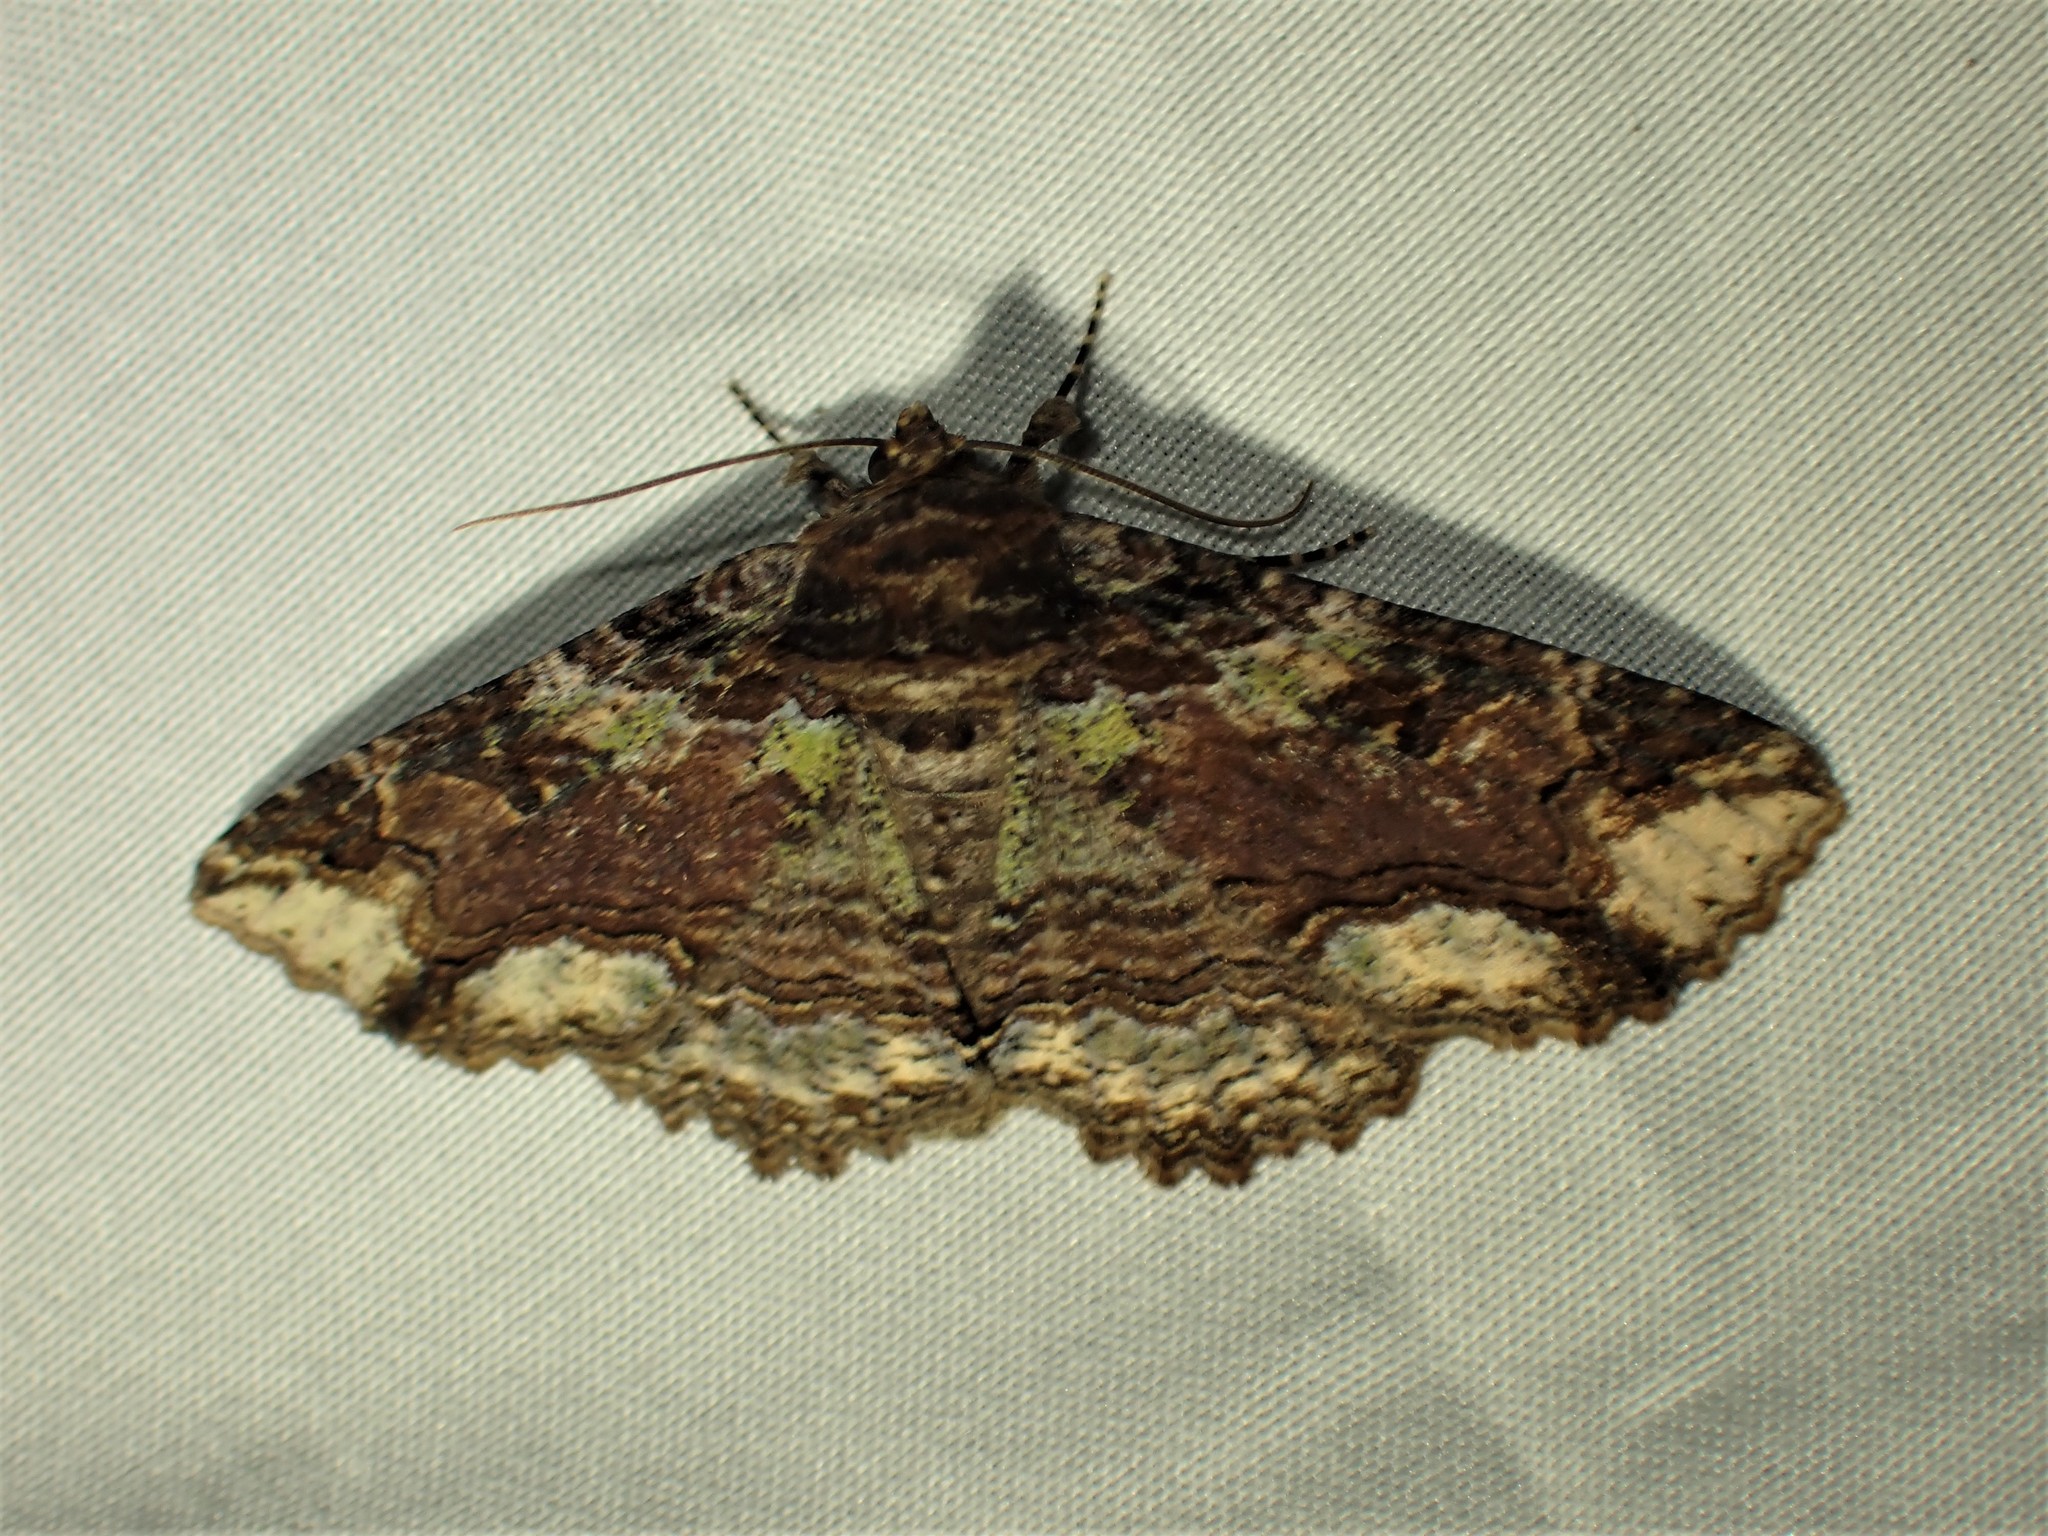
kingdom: Animalia
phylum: Arthropoda
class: Insecta
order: Lepidoptera
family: Erebidae
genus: Zale
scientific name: Zale minerea
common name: Colorful zale moth
